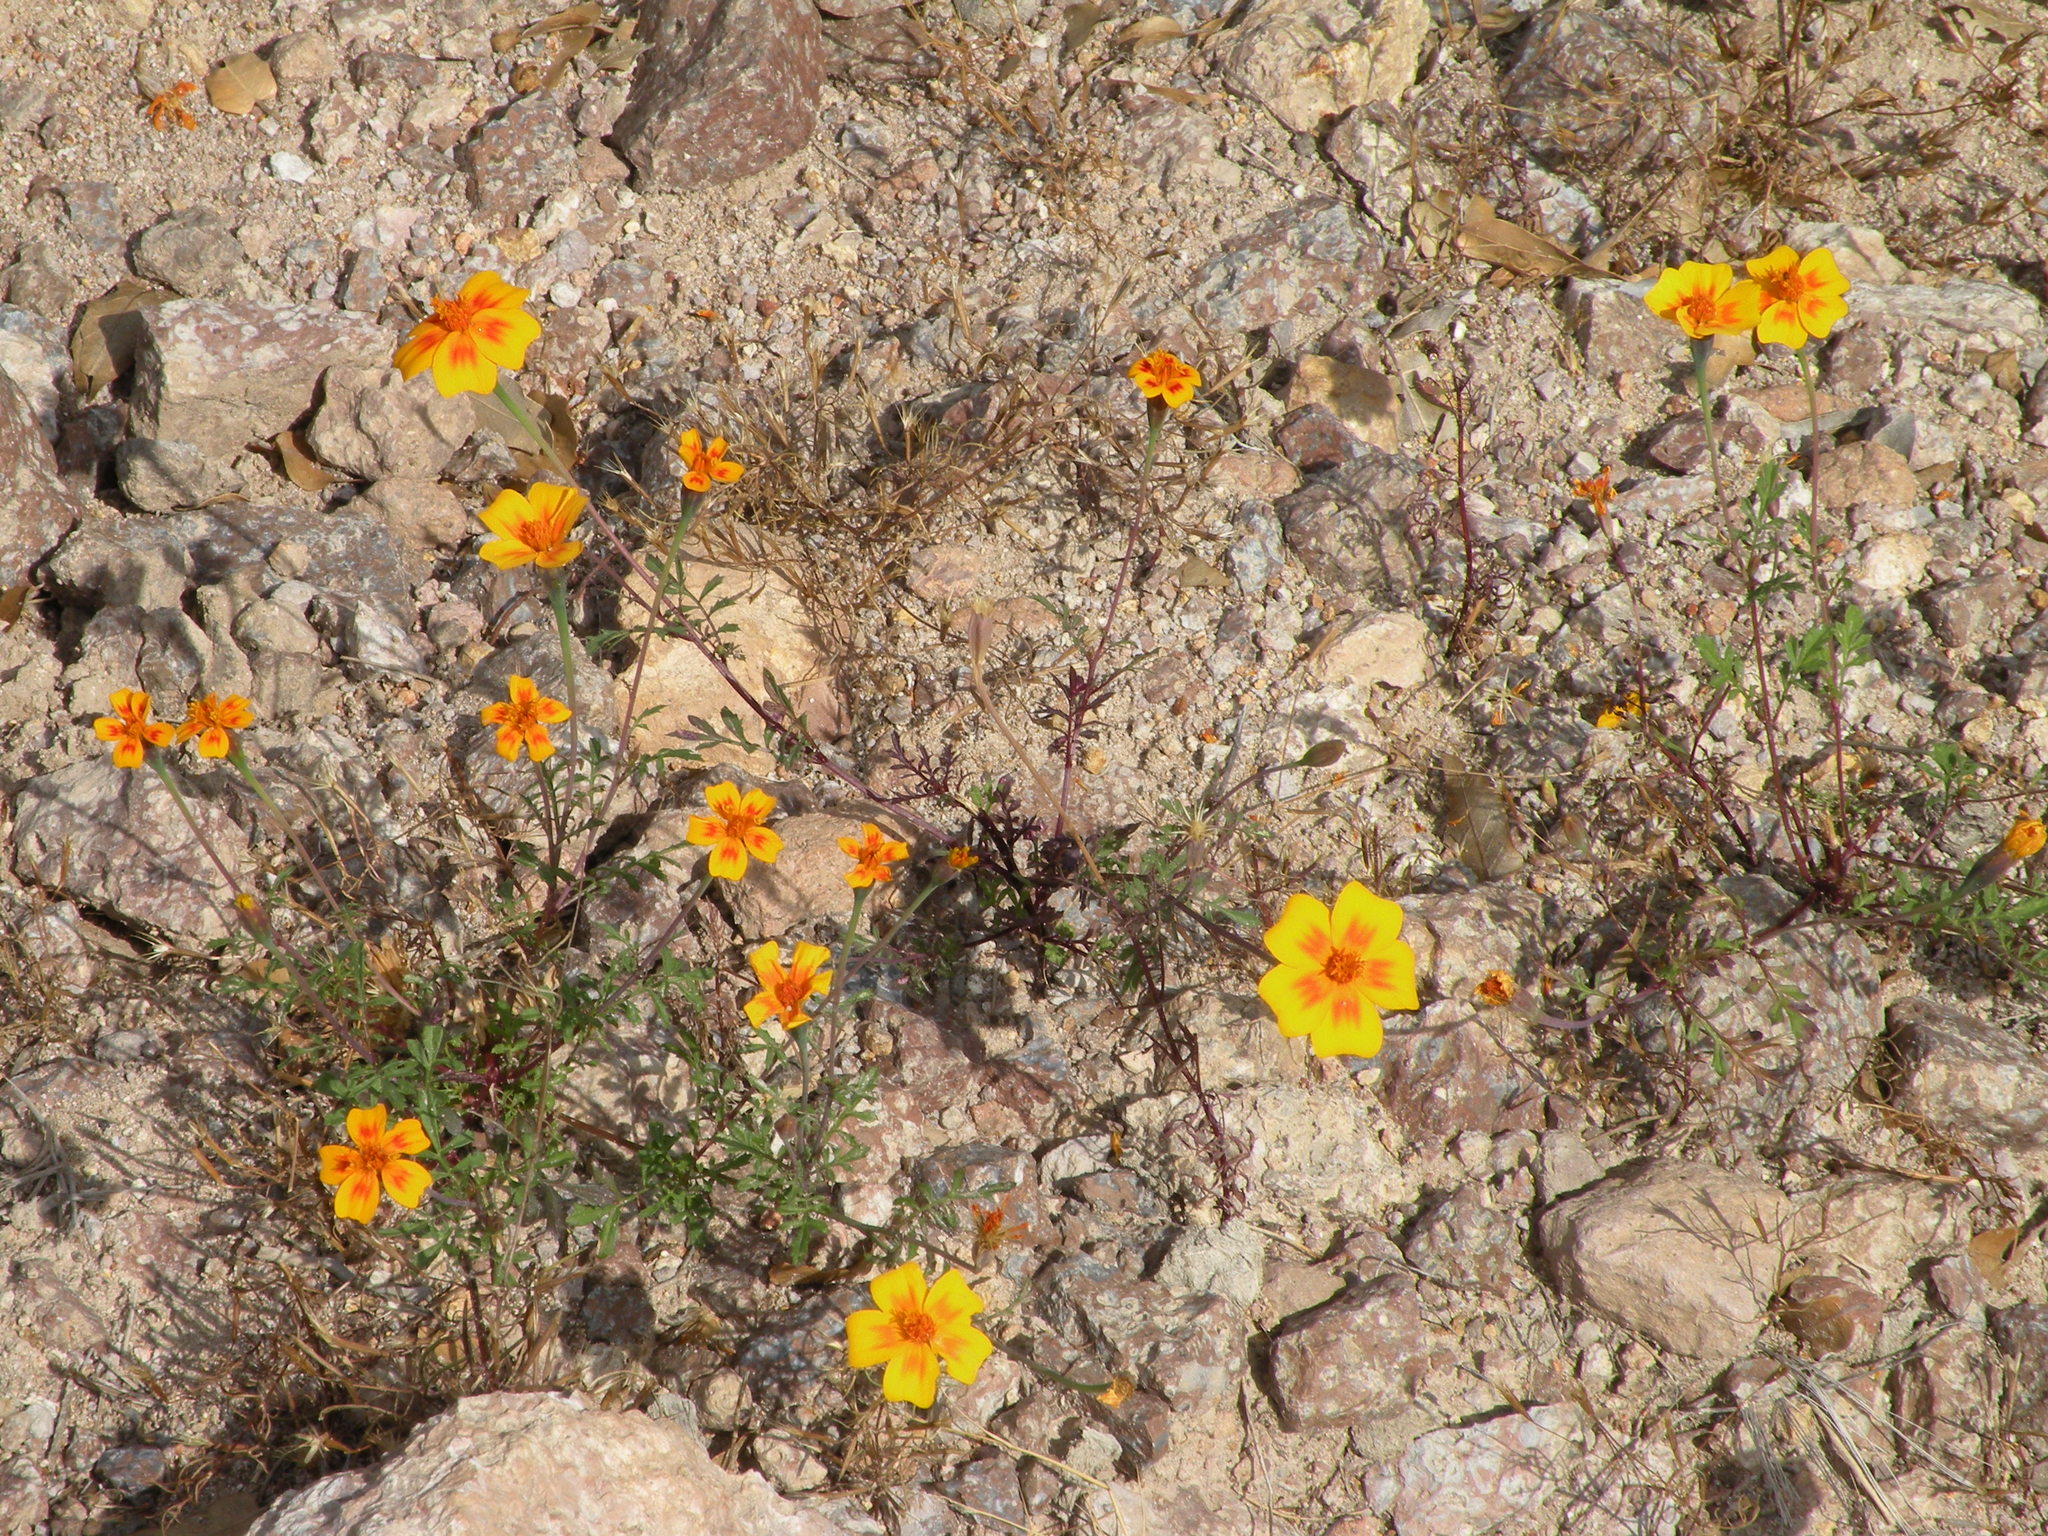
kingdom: Plantae
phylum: Tracheophyta
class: Magnoliopsida
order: Asterales
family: Asteraceae
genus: Tagetes
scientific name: Tagetes lunulata
